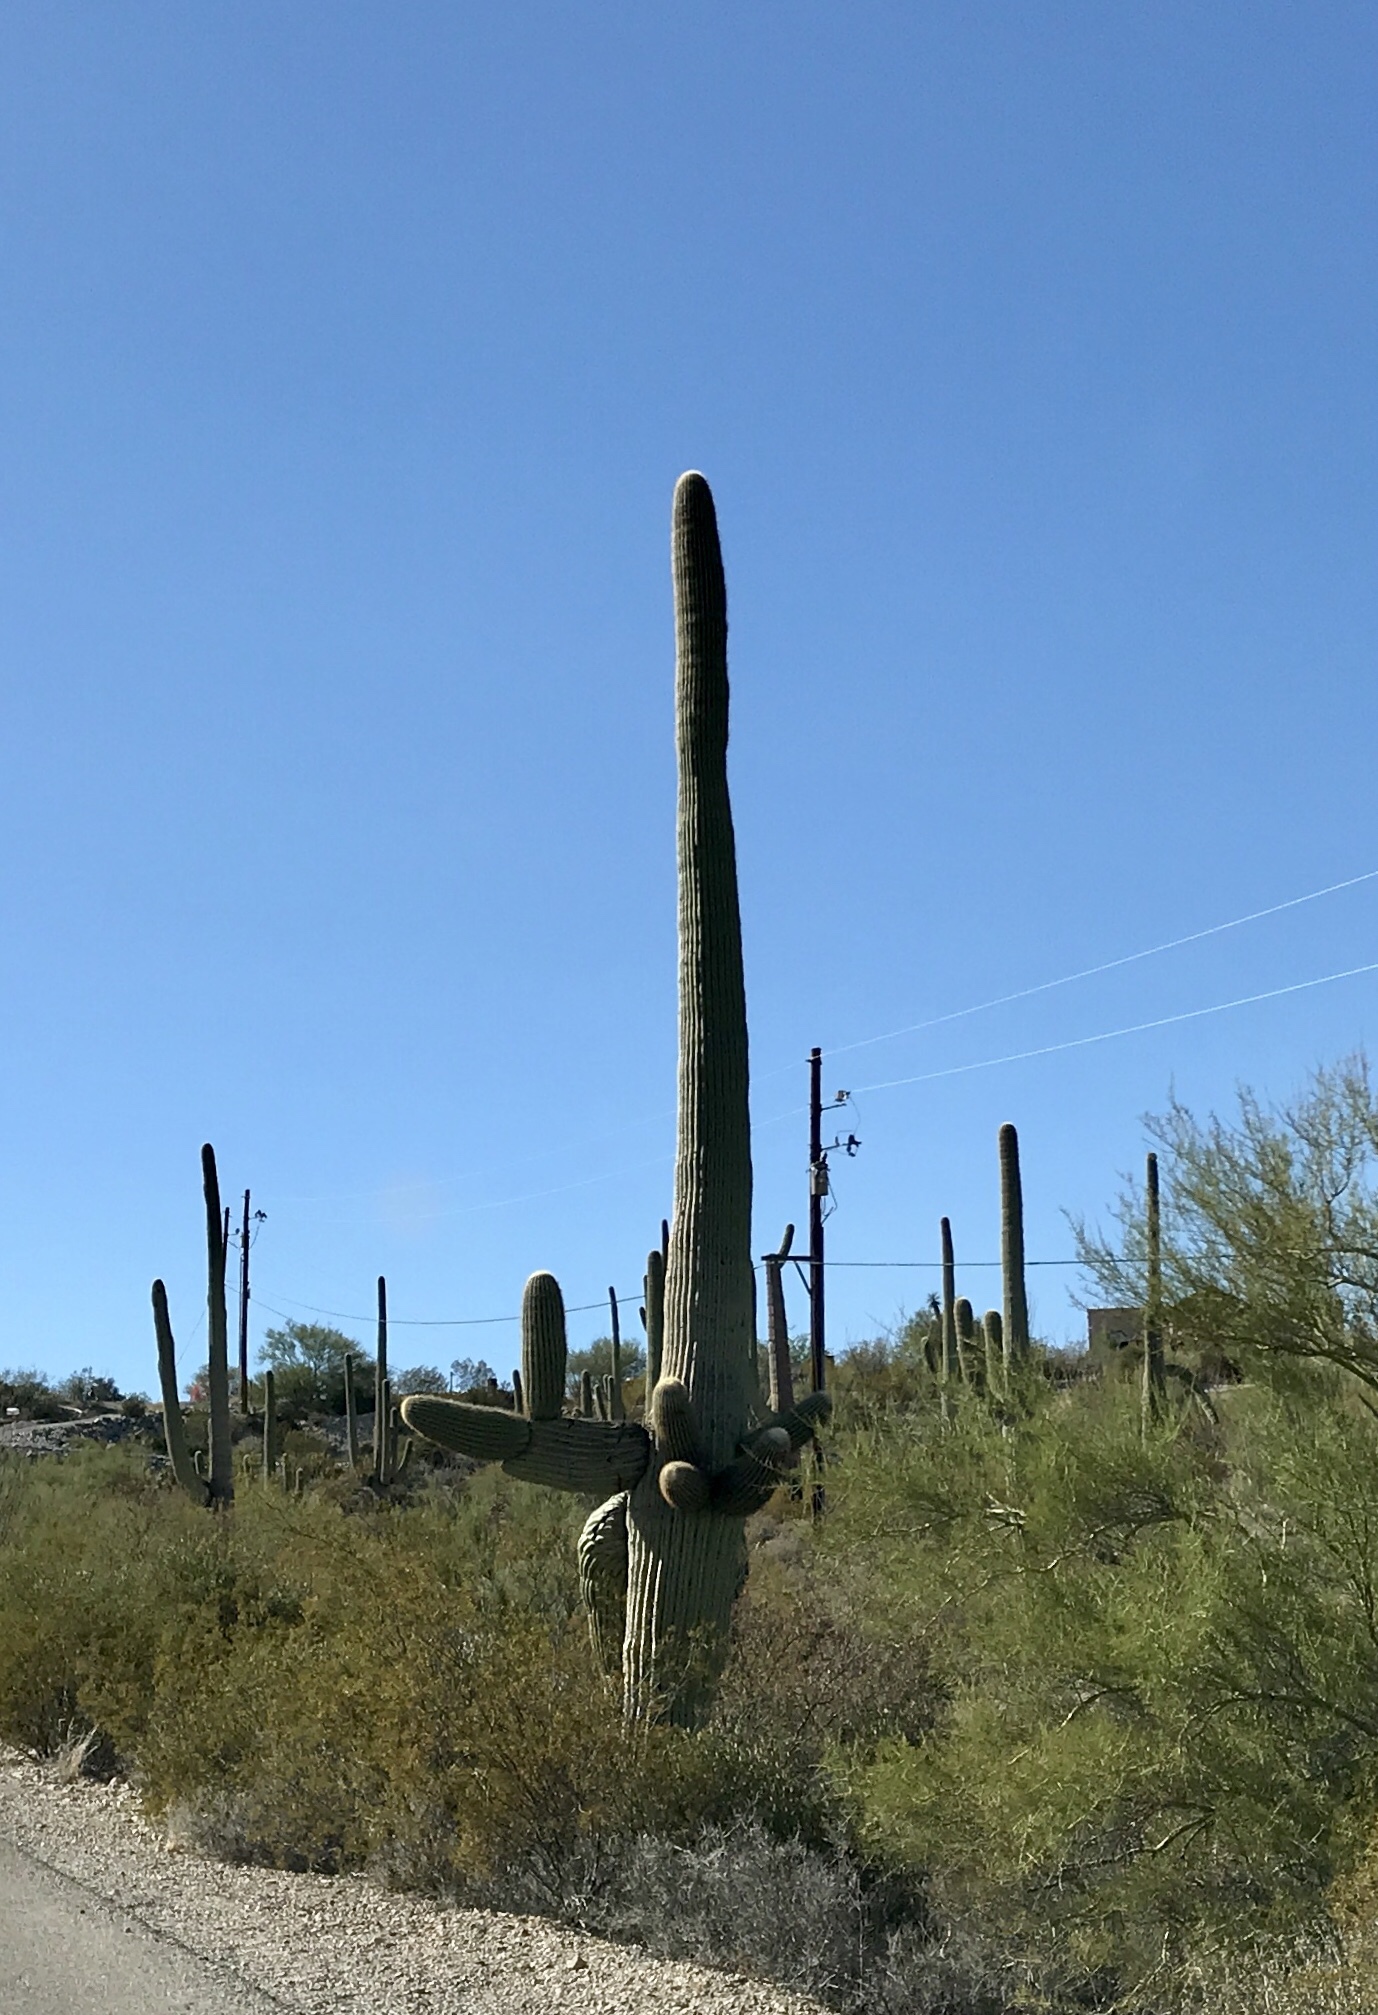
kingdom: Plantae
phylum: Tracheophyta
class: Magnoliopsida
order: Caryophyllales
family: Cactaceae
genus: Carnegiea
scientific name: Carnegiea gigantea
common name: Saguaro
